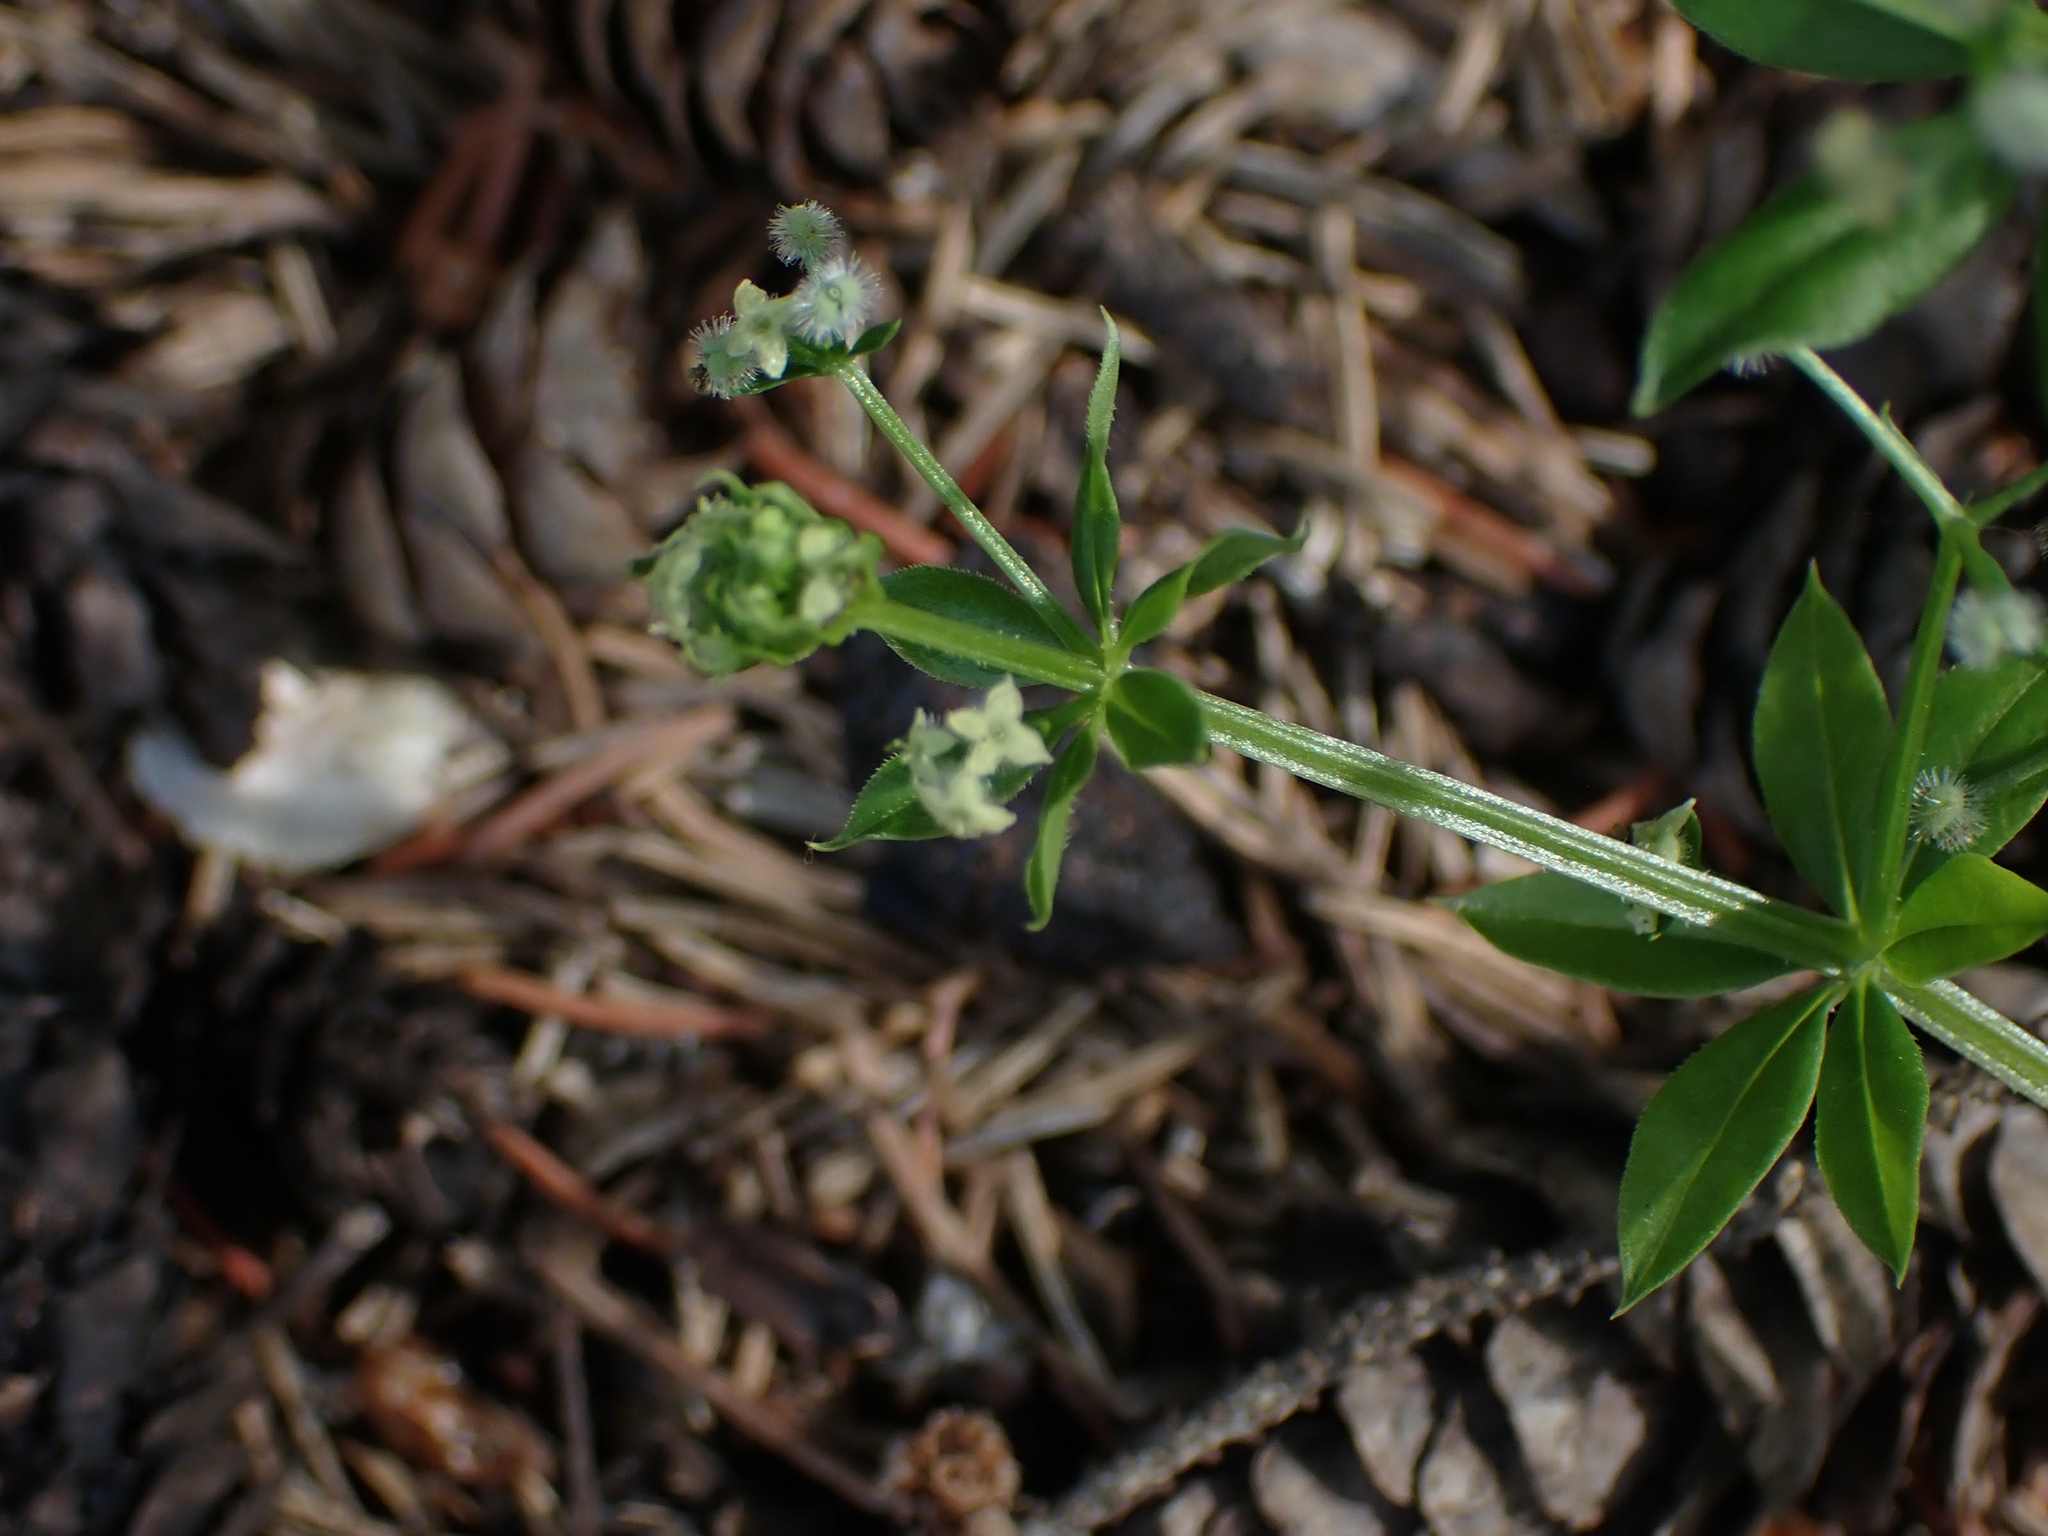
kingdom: Plantae
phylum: Tracheophyta
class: Magnoliopsida
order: Gentianales
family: Rubiaceae
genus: Galium
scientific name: Galium triflorum
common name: Fragrant bedstraw
